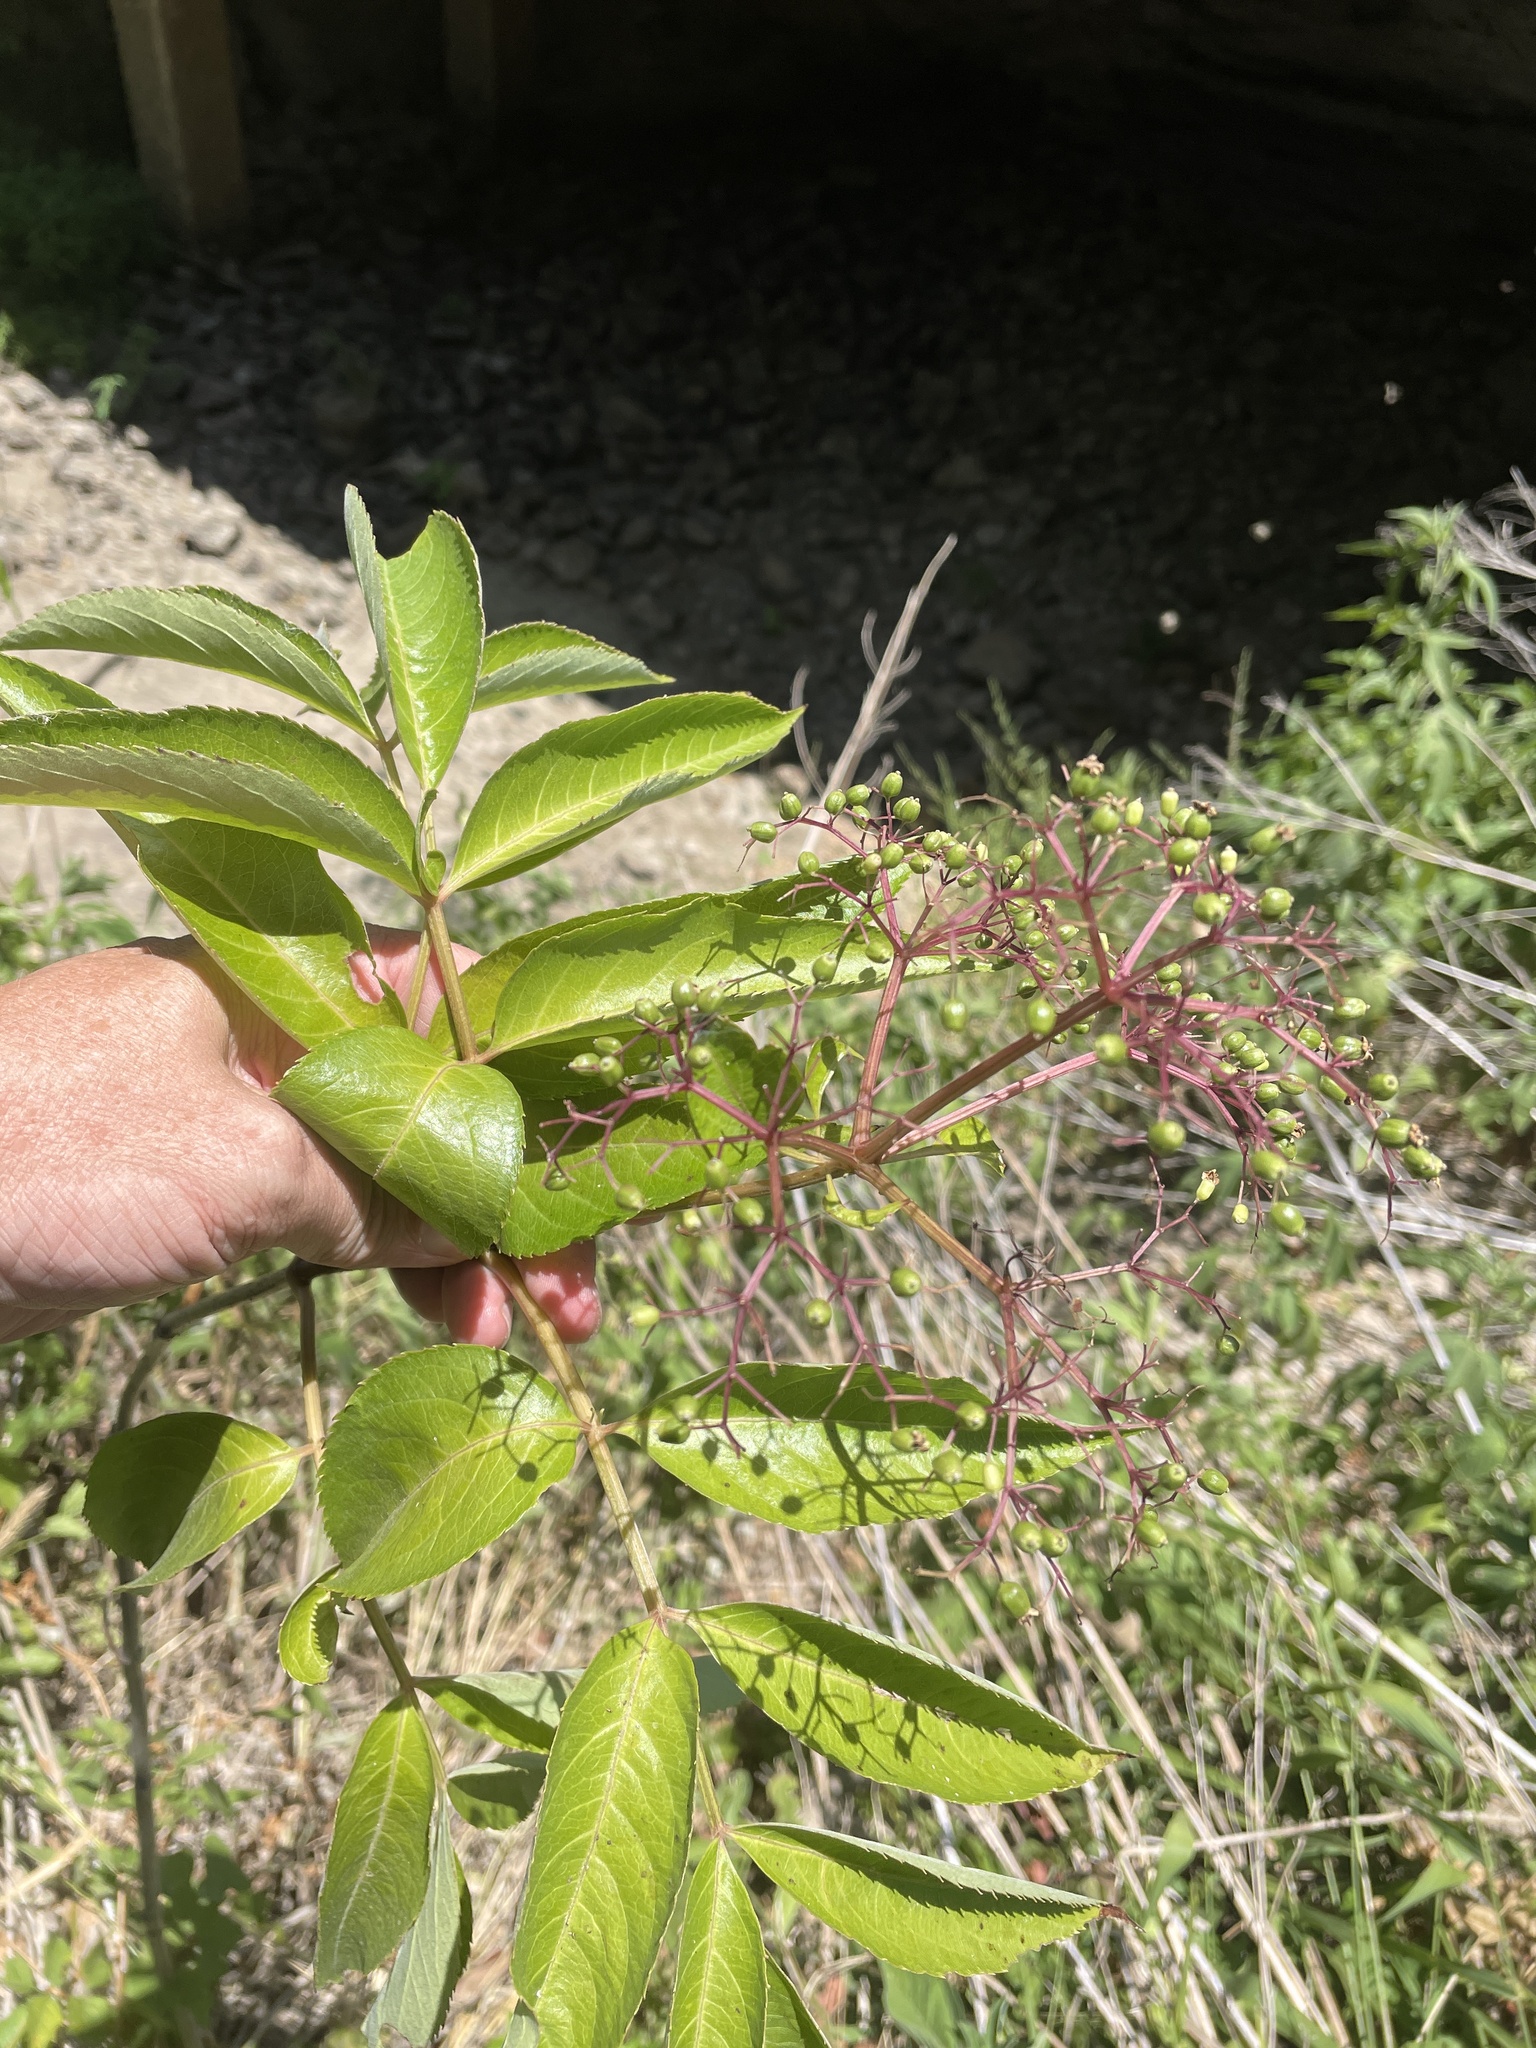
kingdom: Plantae
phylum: Tracheophyta
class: Magnoliopsida
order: Dipsacales
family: Viburnaceae
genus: Sambucus
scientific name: Sambucus canadensis
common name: American elder
